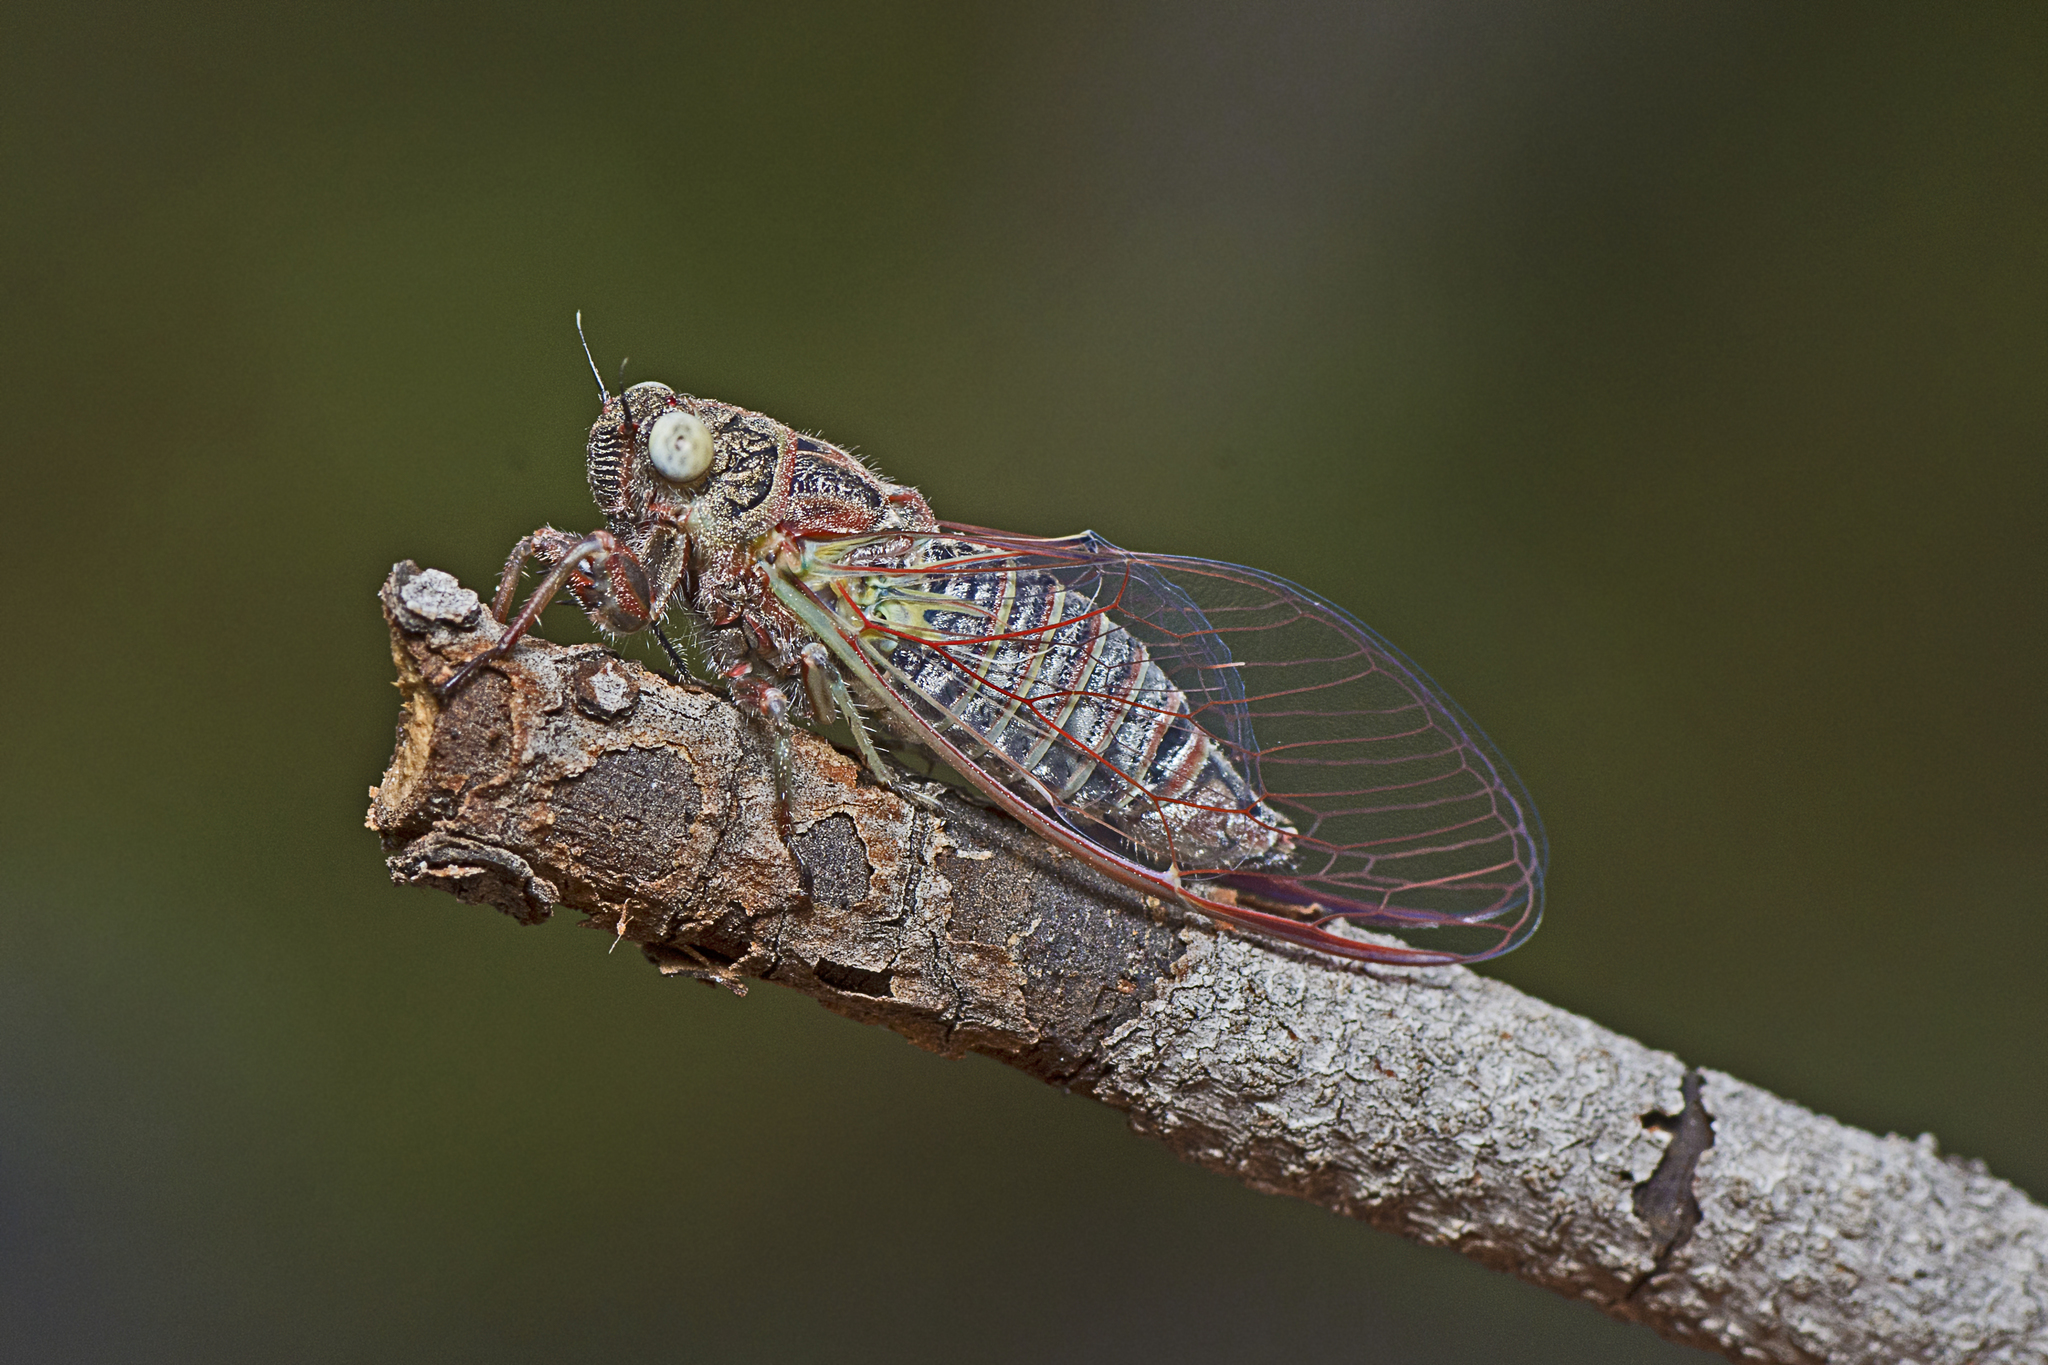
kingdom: Animalia
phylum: Arthropoda
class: Insecta
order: Hemiptera
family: Cicadidae
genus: Atrapsalta
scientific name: Atrapsalta corticina
